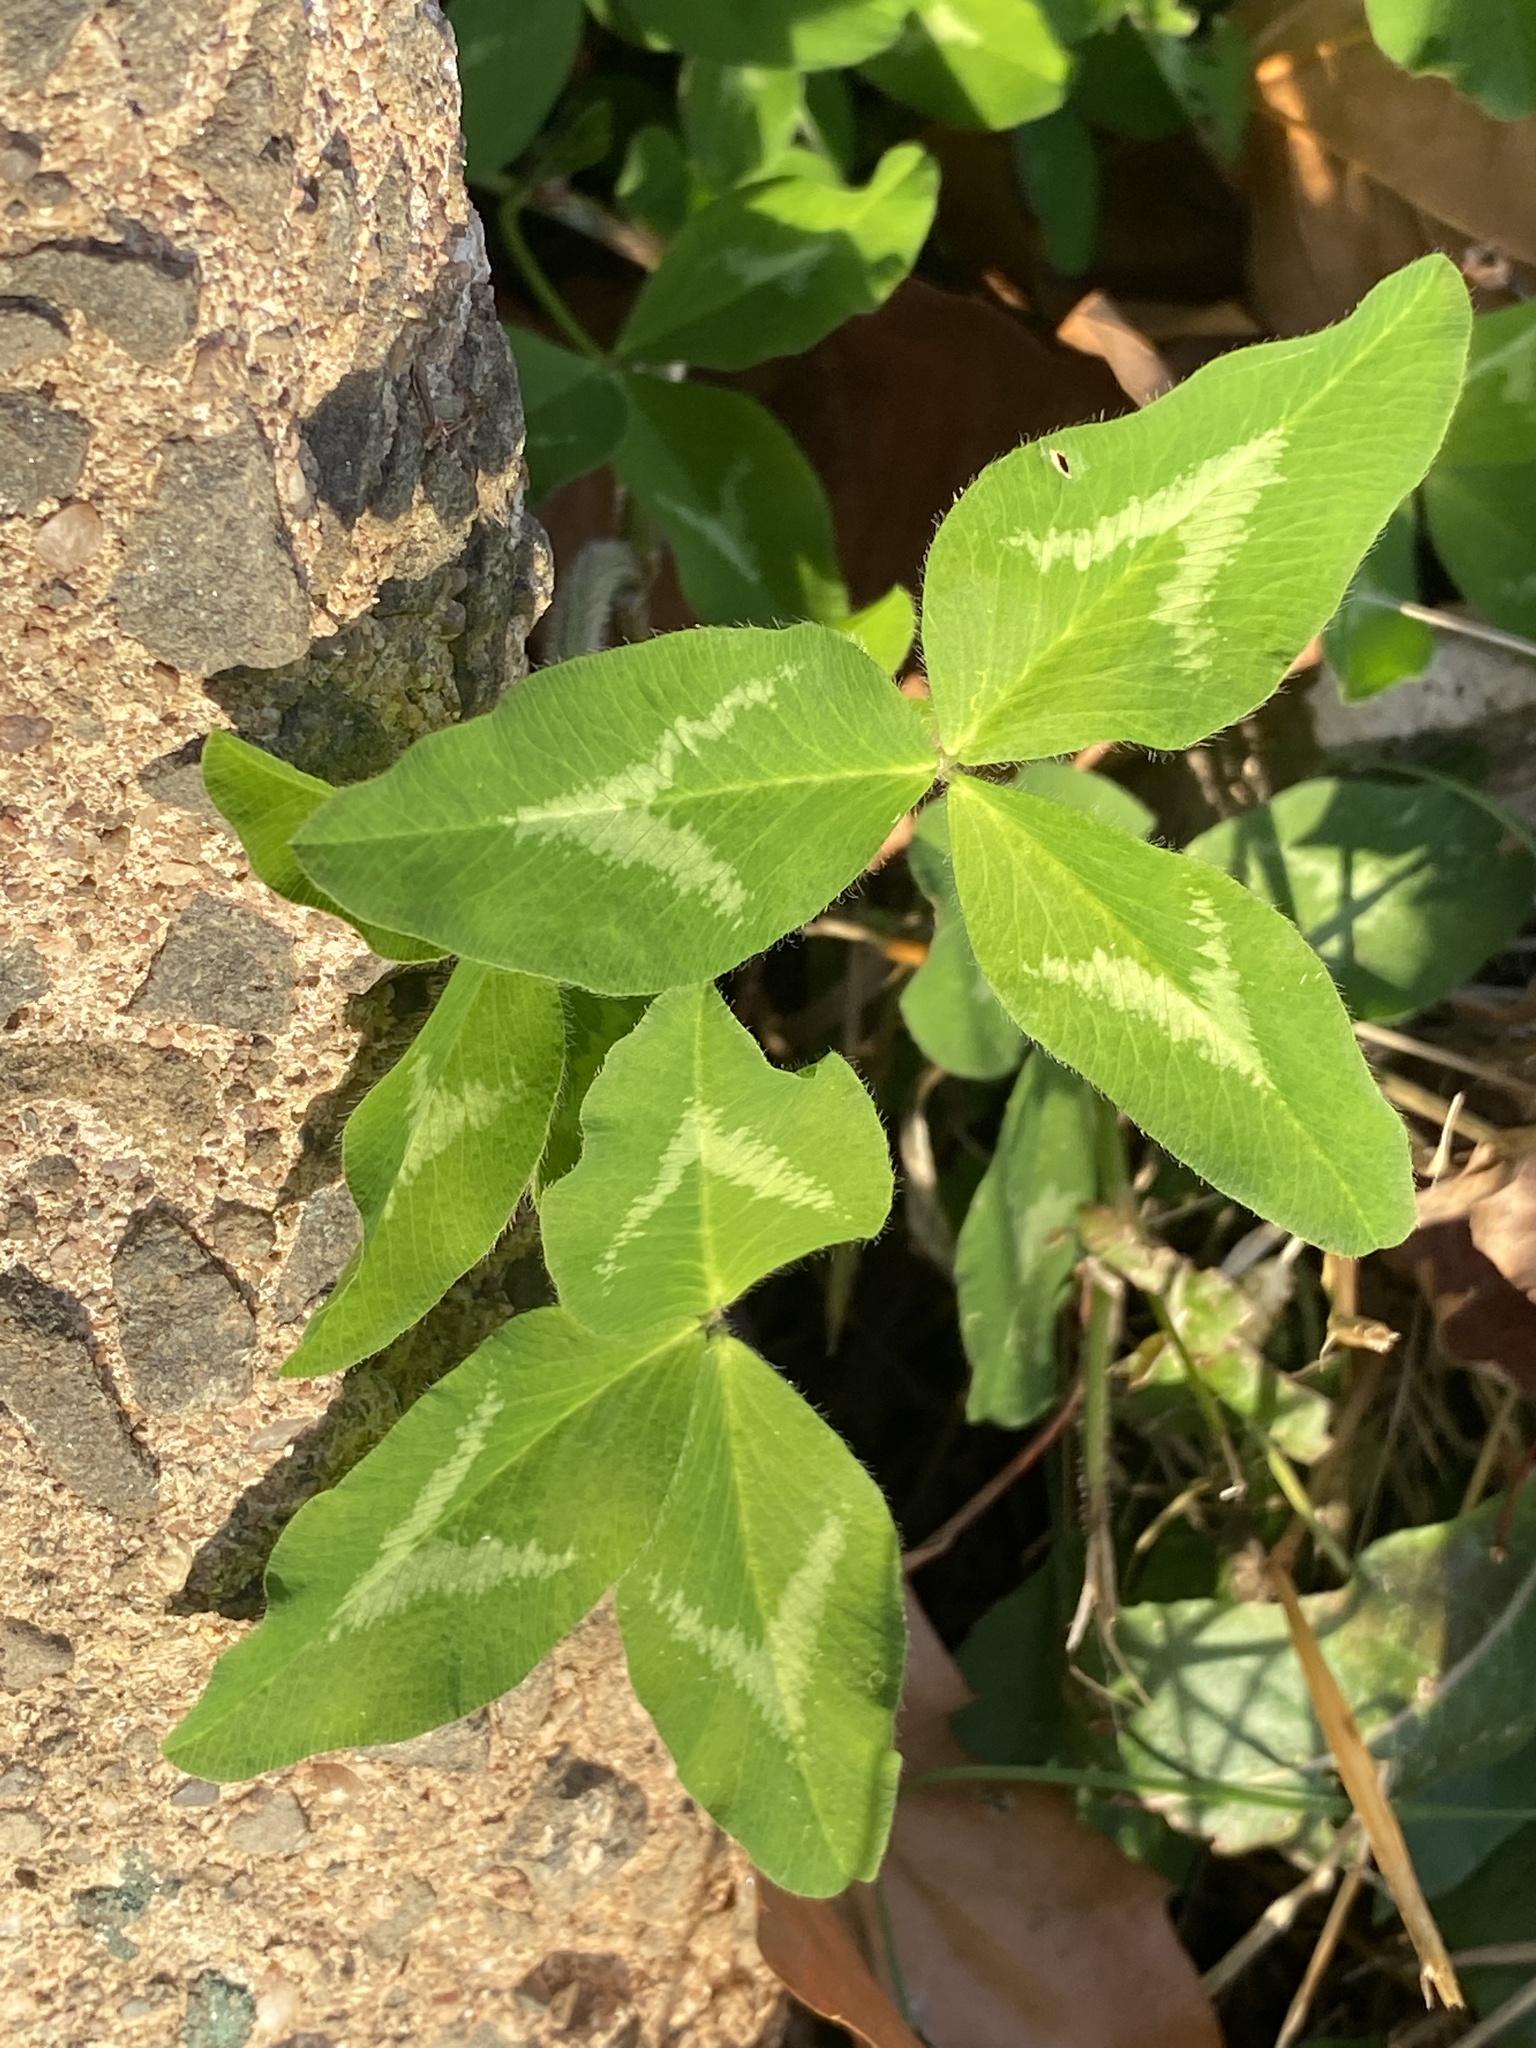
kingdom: Plantae
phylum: Tracheophyta
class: Magnoliopsida
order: Fabales
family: Fabaceae
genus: Trifolium
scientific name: Trifolium pratense
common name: Red clover
